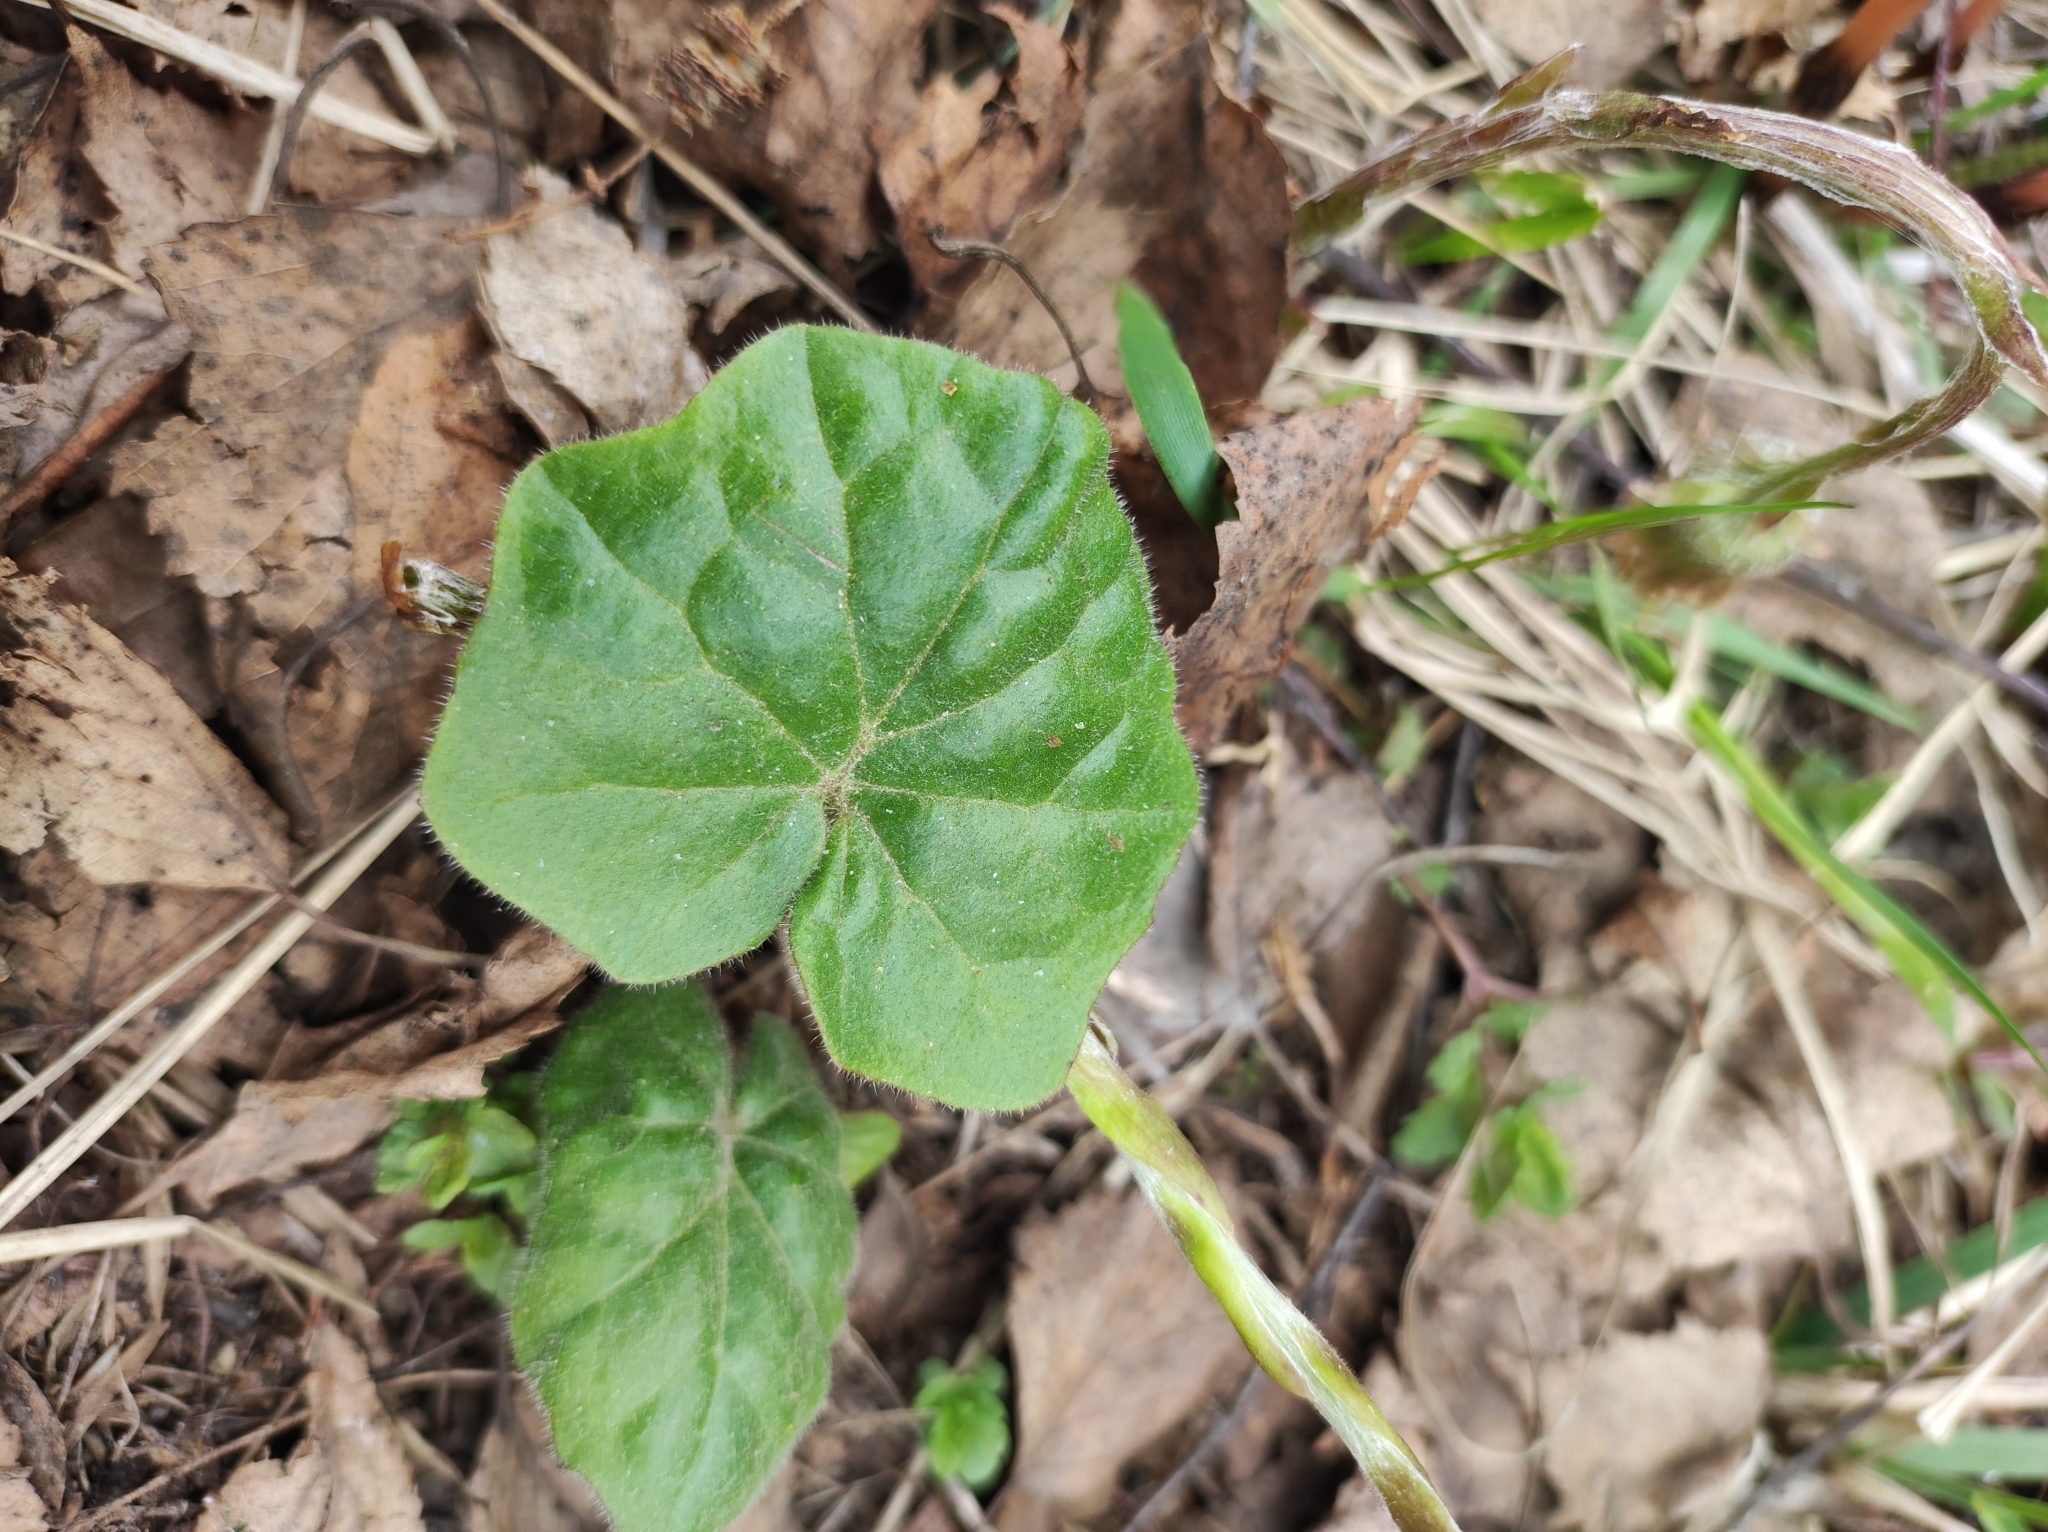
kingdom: Plantae
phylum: Tracheophyta
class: Magnoliopsida
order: Asterales
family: Asteraceae
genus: Tussilago
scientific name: Tussilago farfara
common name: Coltsfoot
